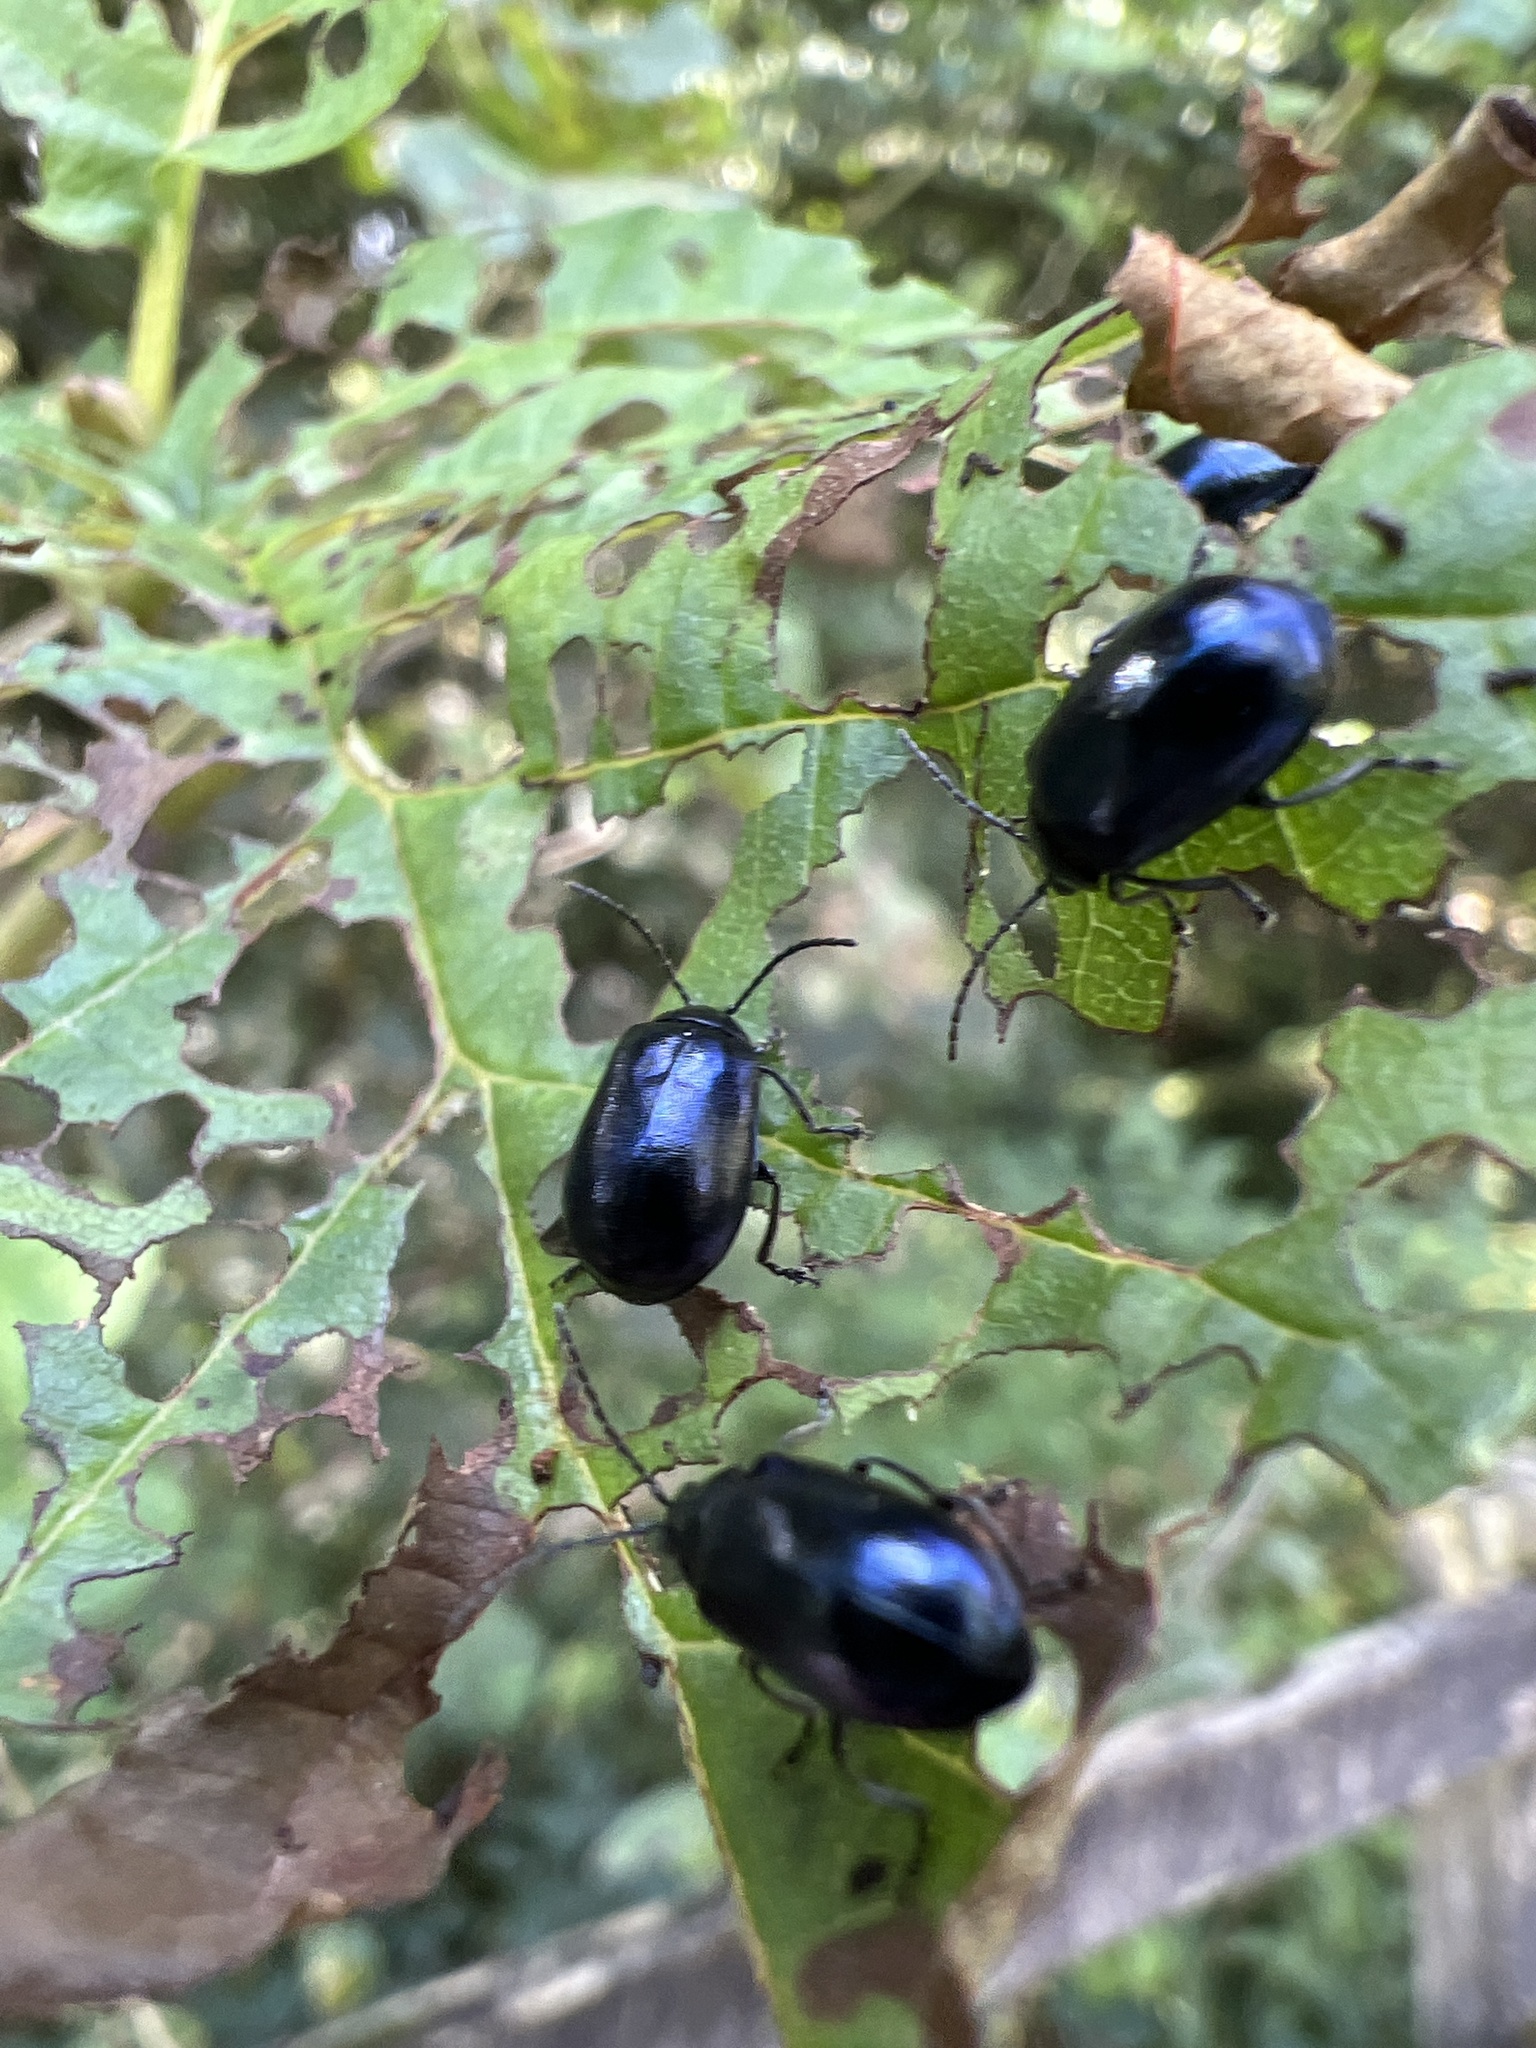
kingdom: Animalia
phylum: Arthropoda
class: Insecta
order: Coleoptera
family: Chrysomelidae
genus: Agelastica
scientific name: Agelastica alni
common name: Alder leaf beetle
